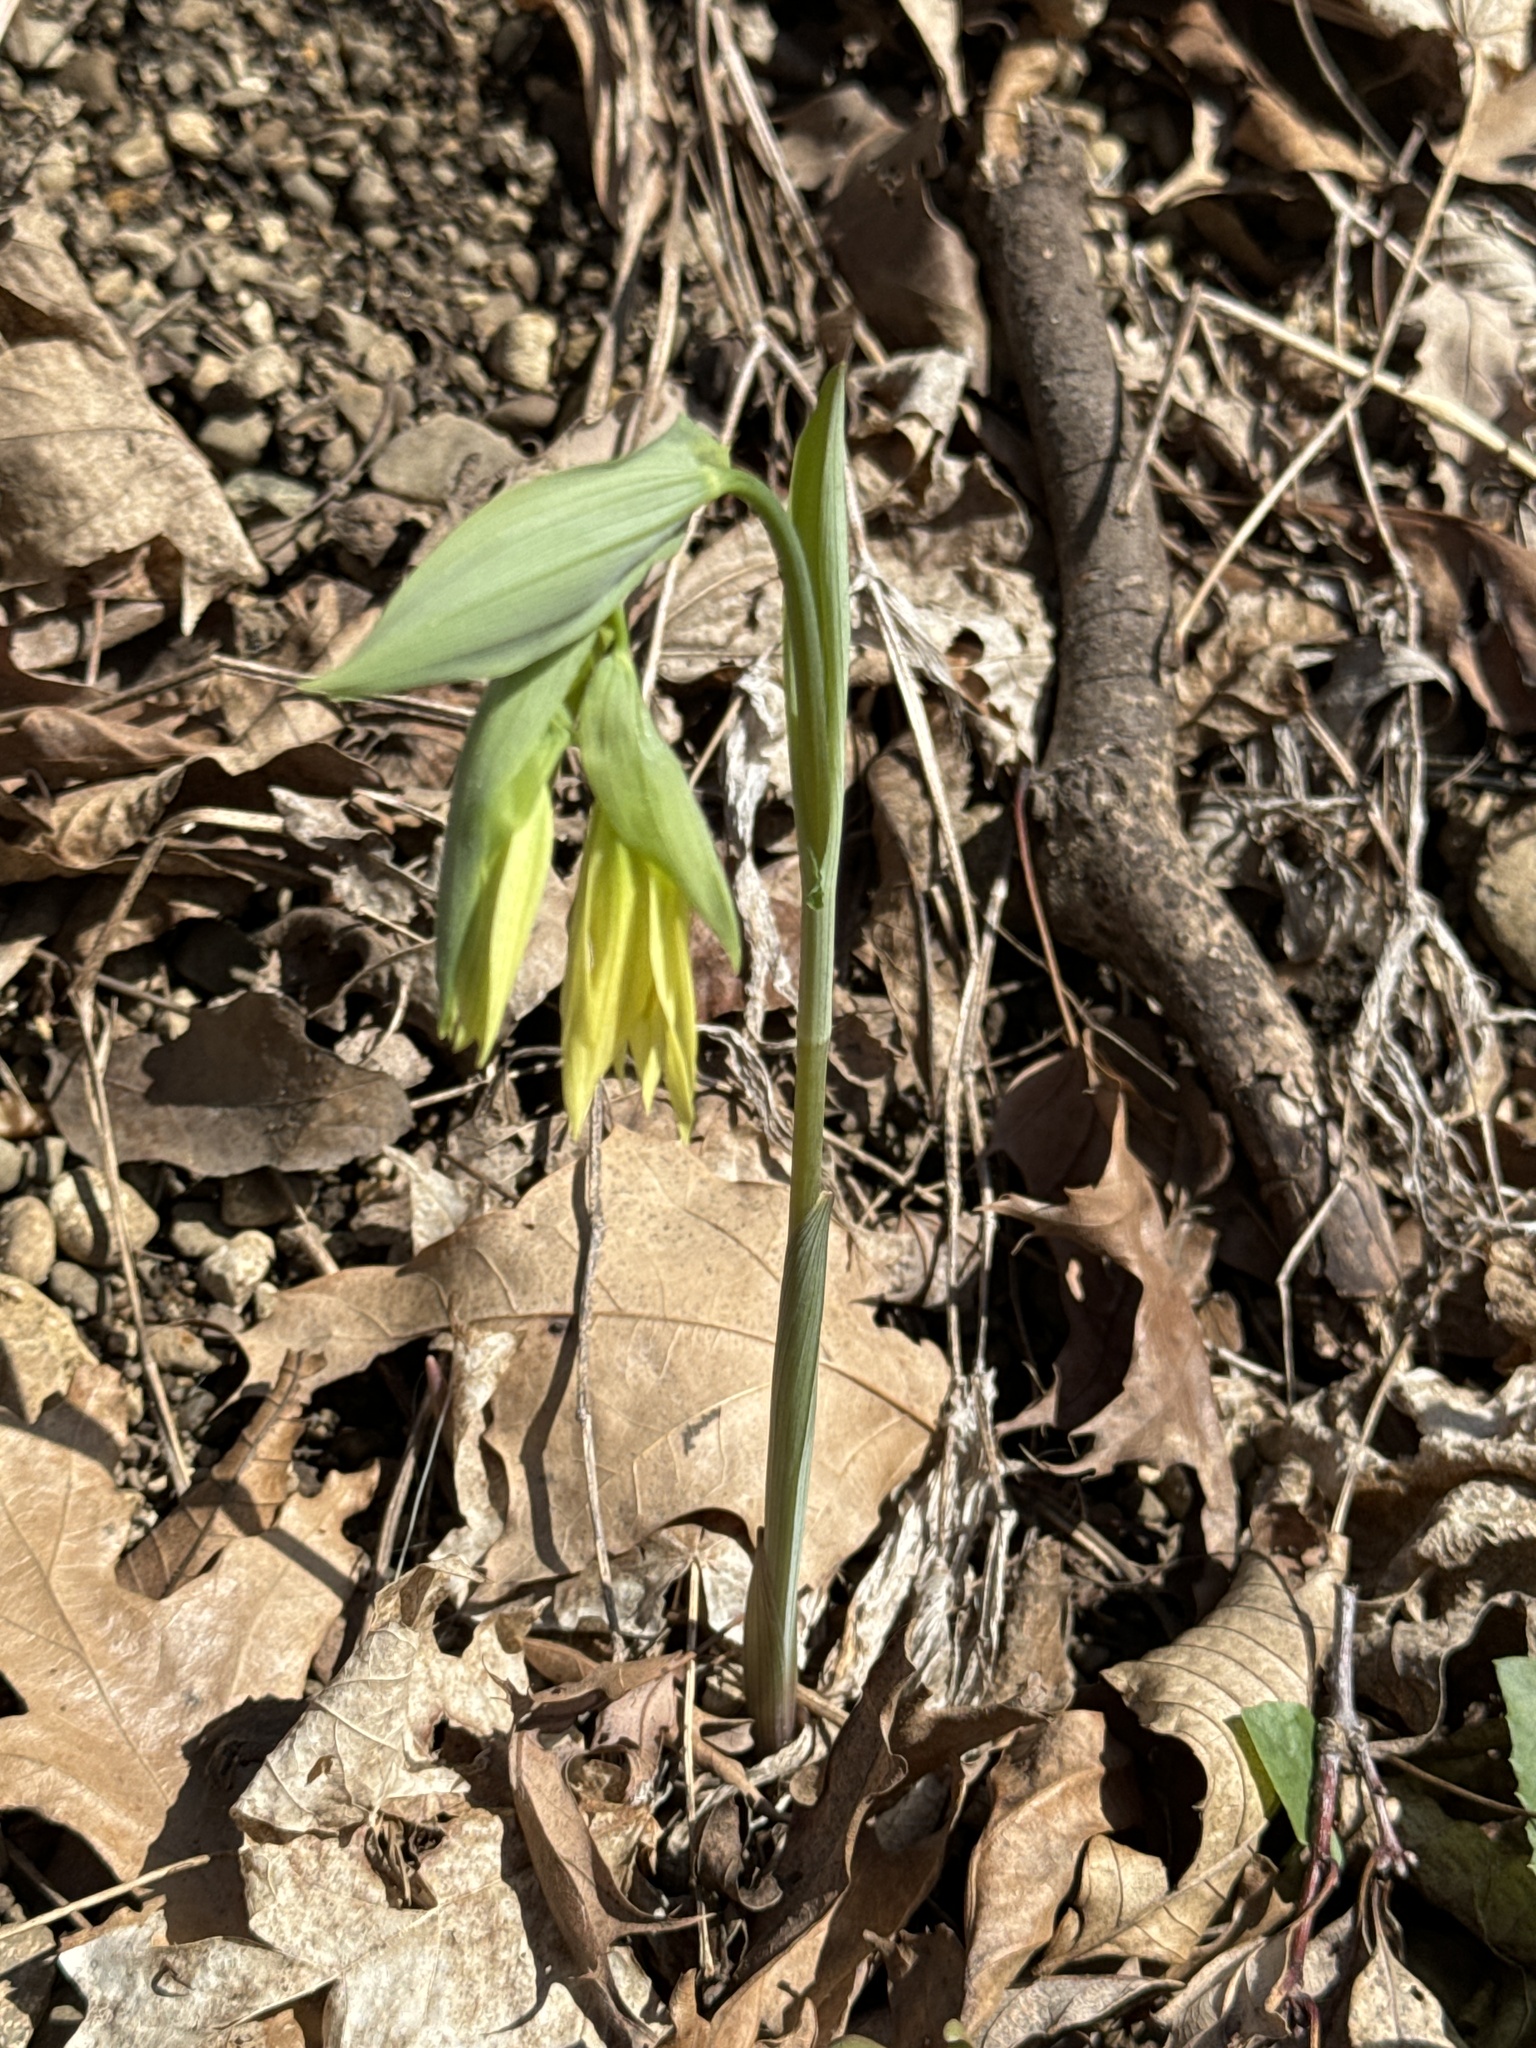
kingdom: Plantae
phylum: Tracheophyta
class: Liliopsida
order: Liliales
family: Colchicaceae
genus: Uvularia
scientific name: Uvularia grandiflora
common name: Bellwort
